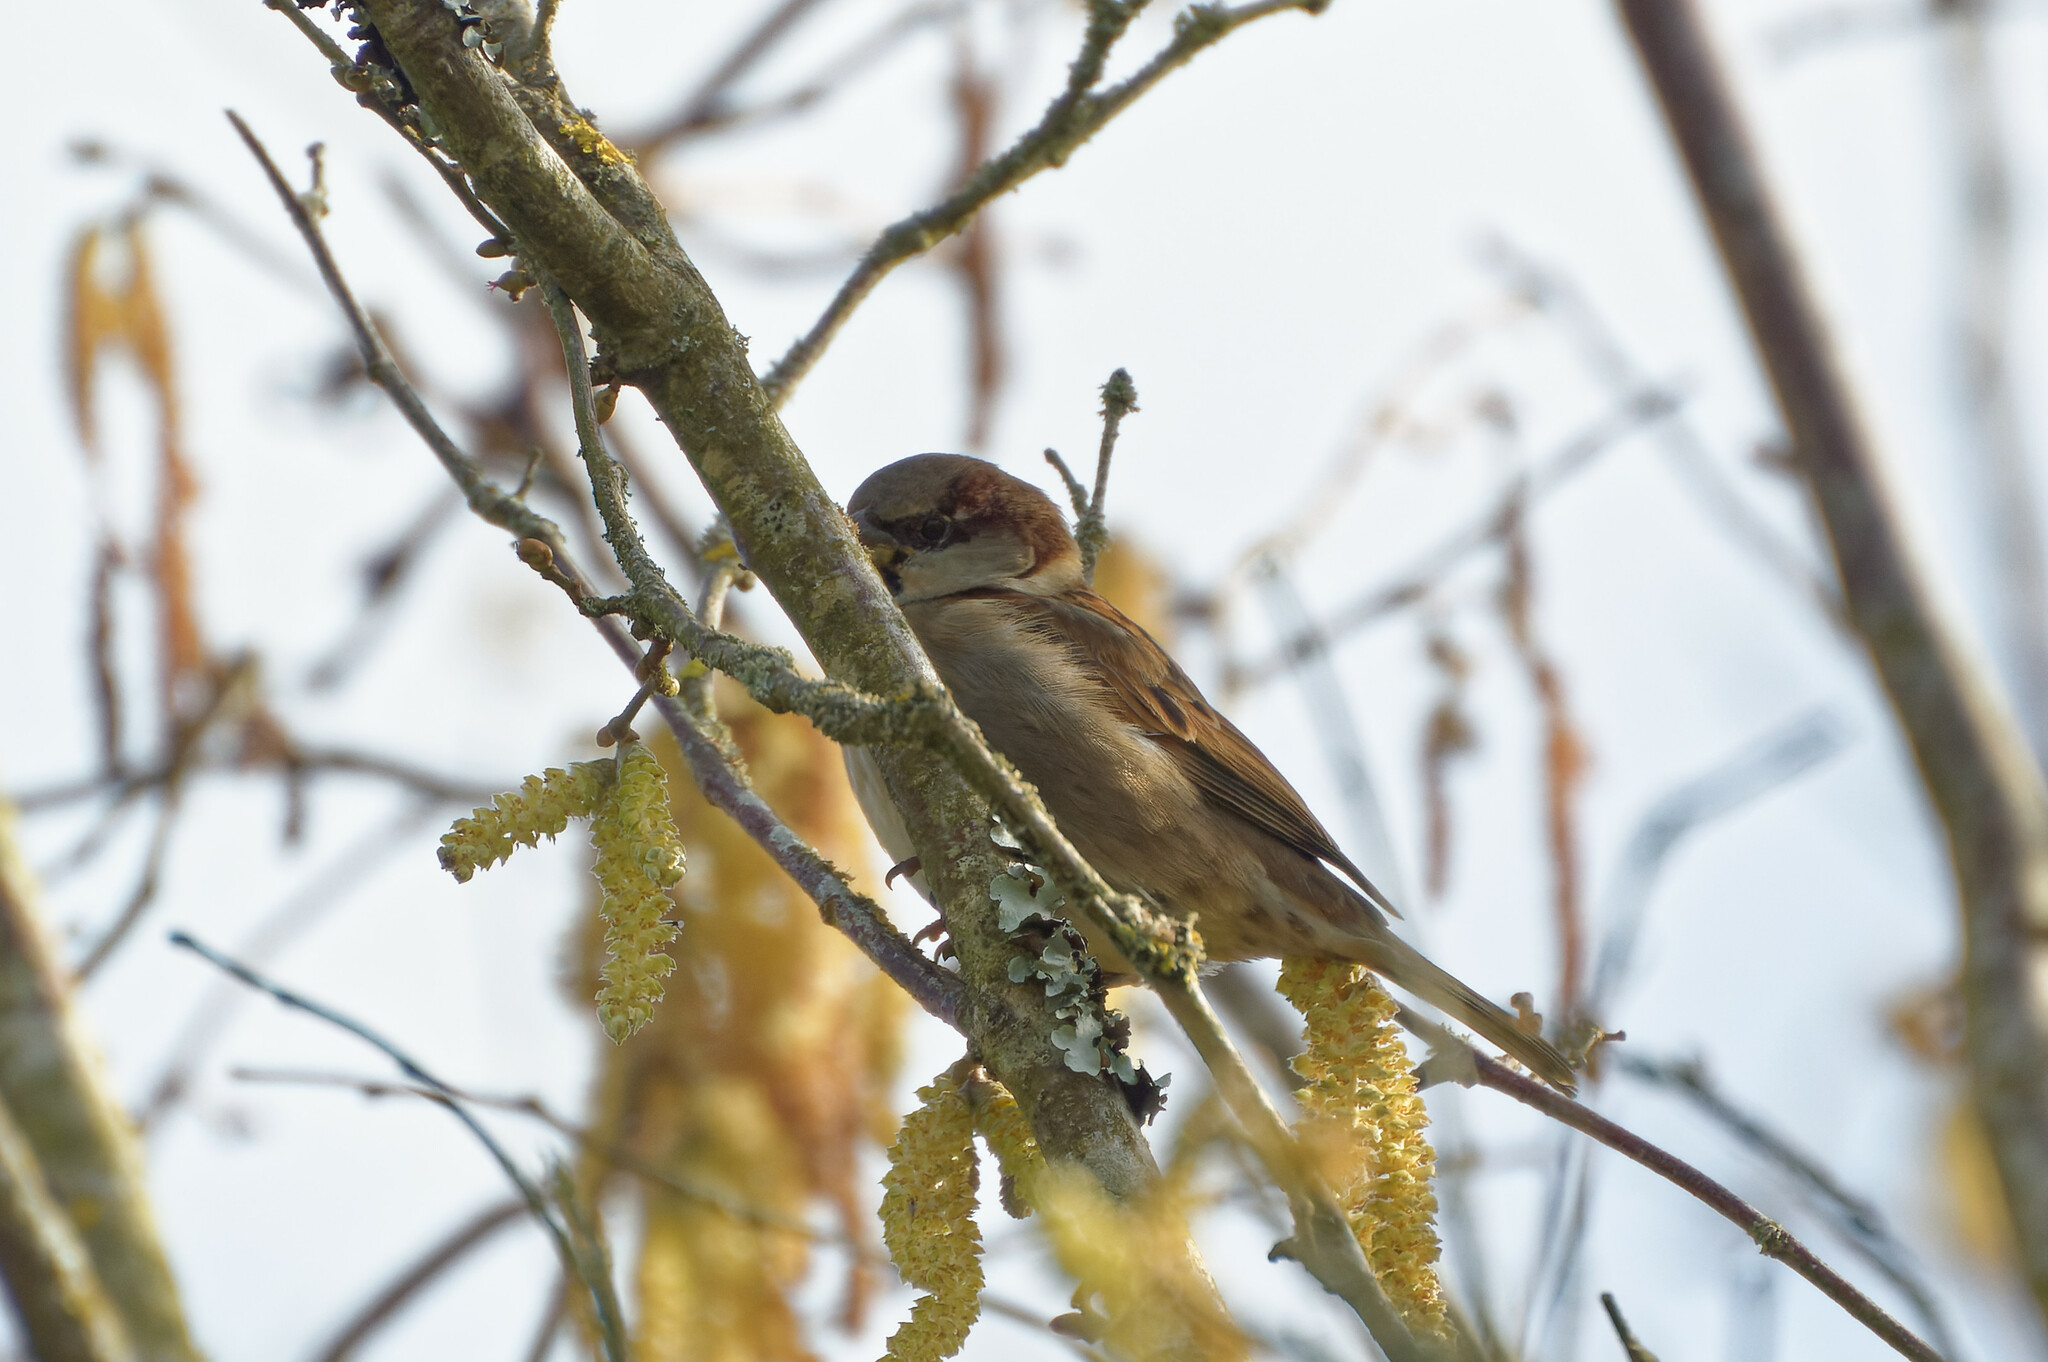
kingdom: Animalia
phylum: Chordata
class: Aves
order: Passeriformes
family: Passeridae
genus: Passer
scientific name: Passer domesticus
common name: House sparrow
